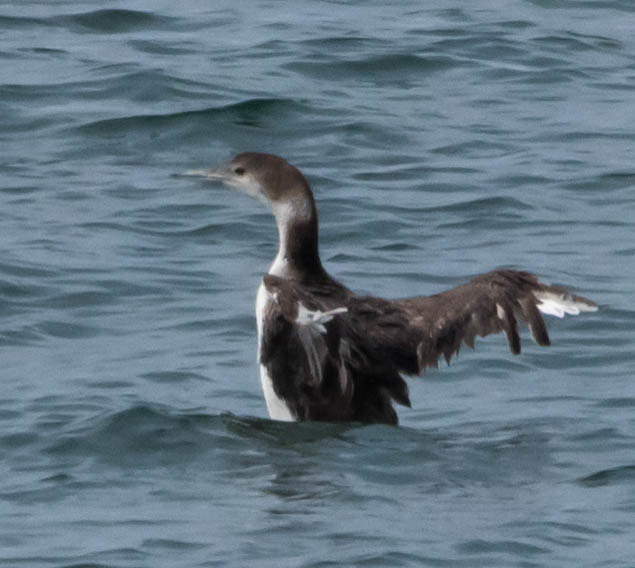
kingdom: Animalia
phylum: Chordata
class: Aves
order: Gaviiformes
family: Gaviidae
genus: Gavia
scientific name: Gavia immer
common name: Common loon
